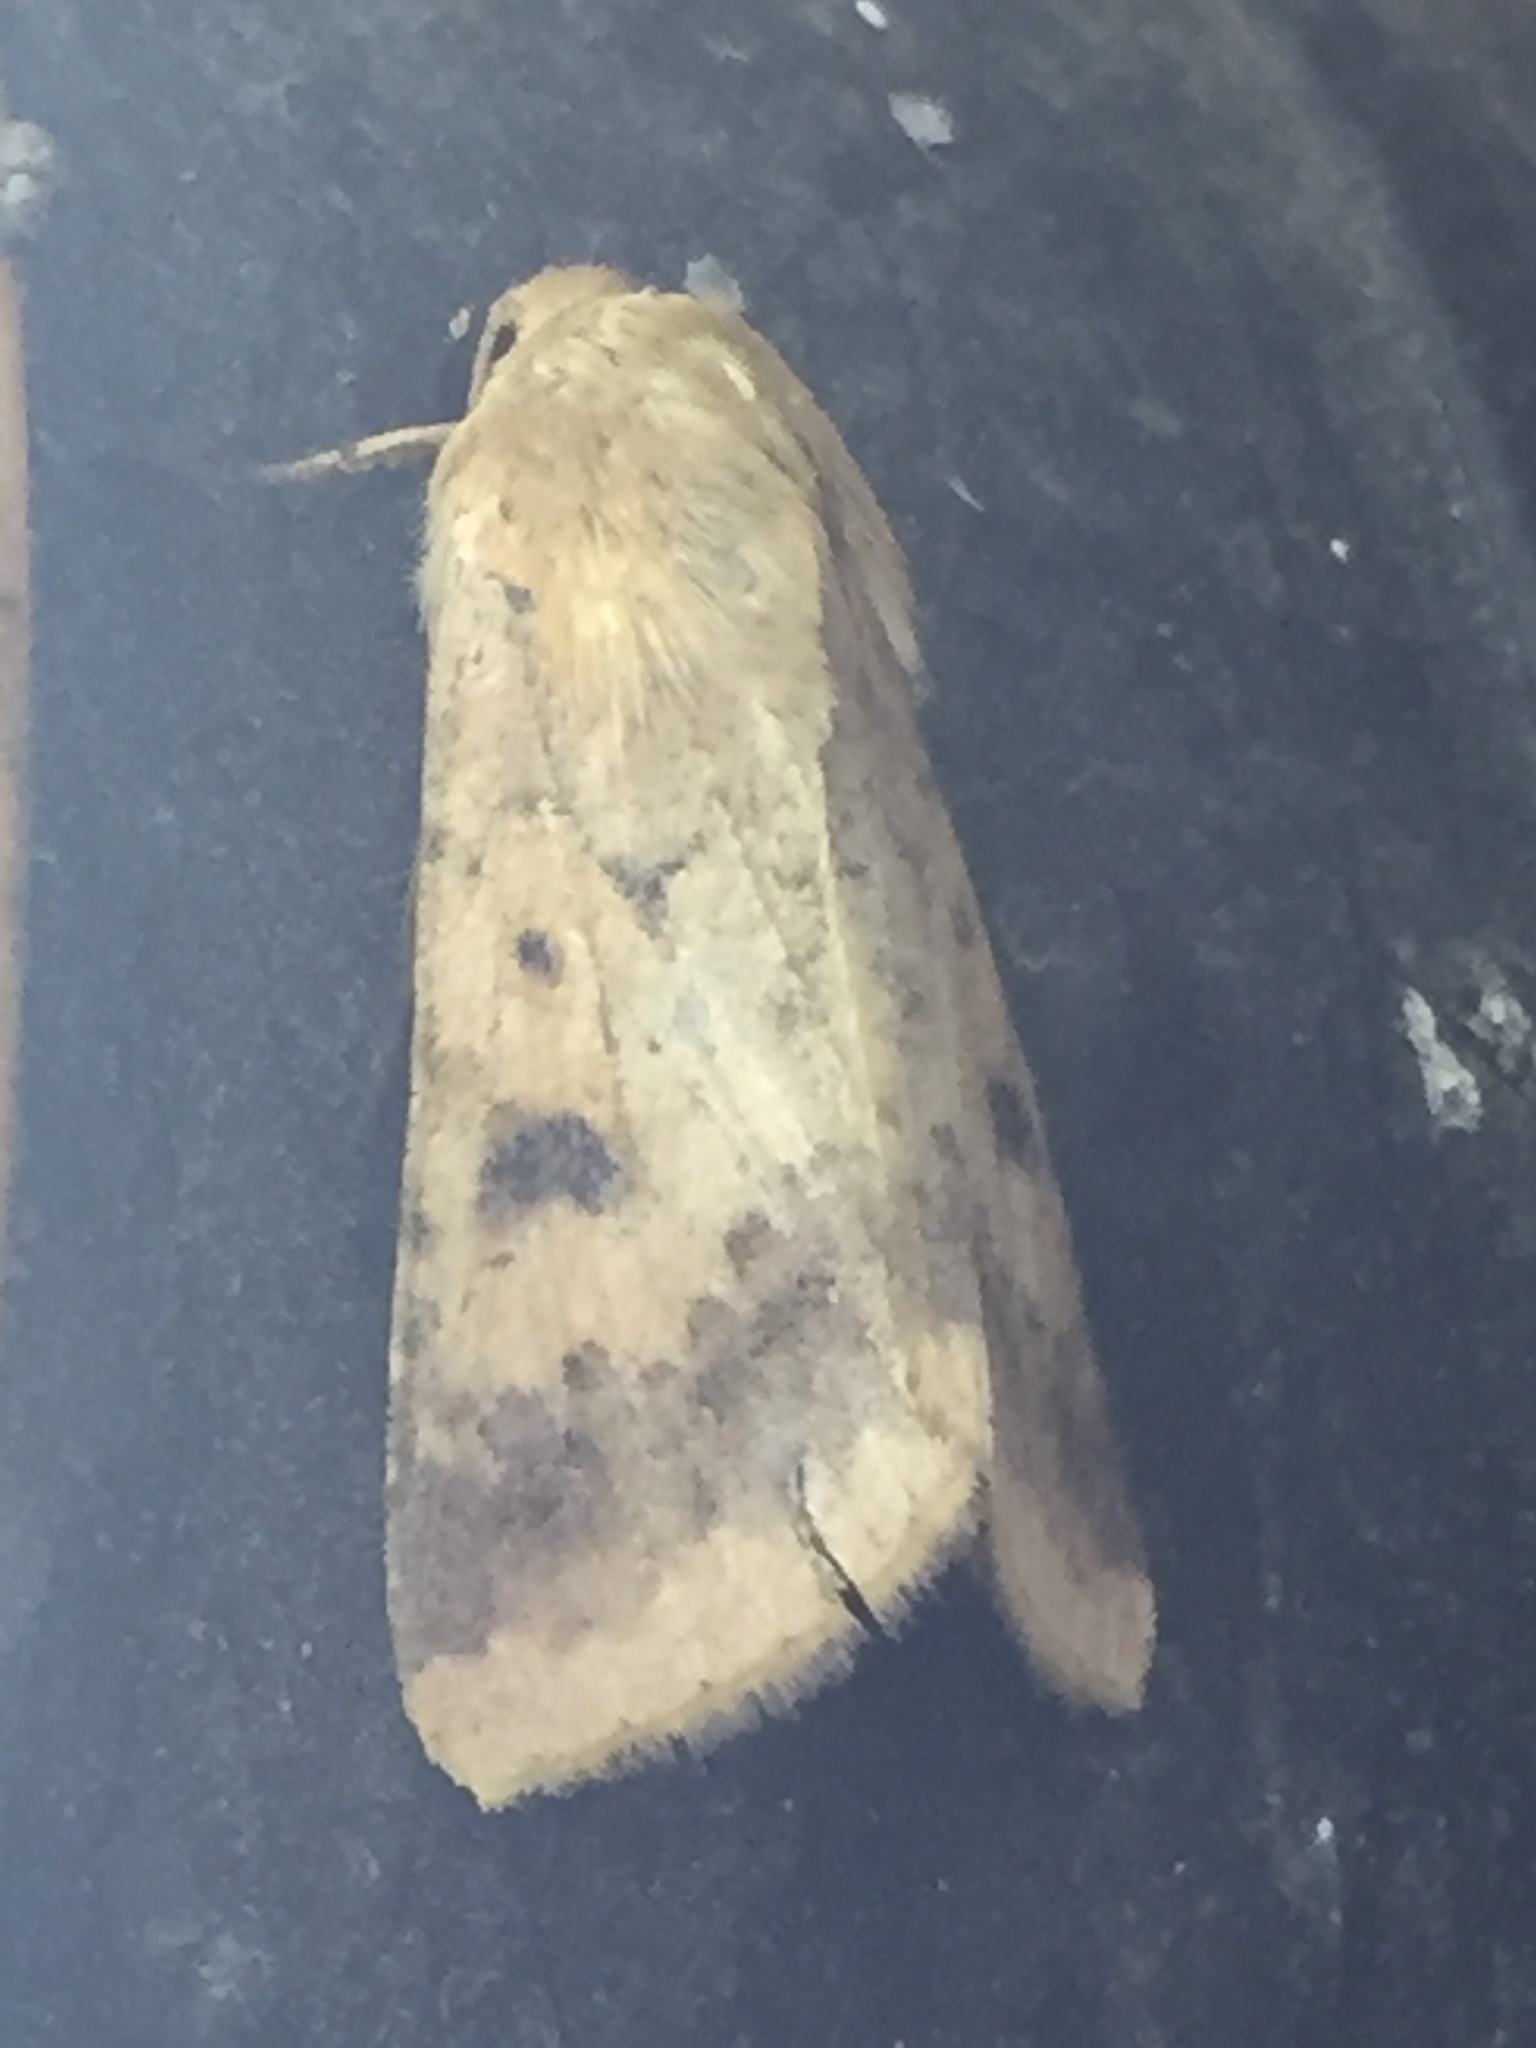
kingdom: Animalia
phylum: Arthropoda
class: Insecta
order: Lepidoptera
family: Noctuidae
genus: Helicoverpa
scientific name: Helicoverpa armigera
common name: Cotton bollworm
